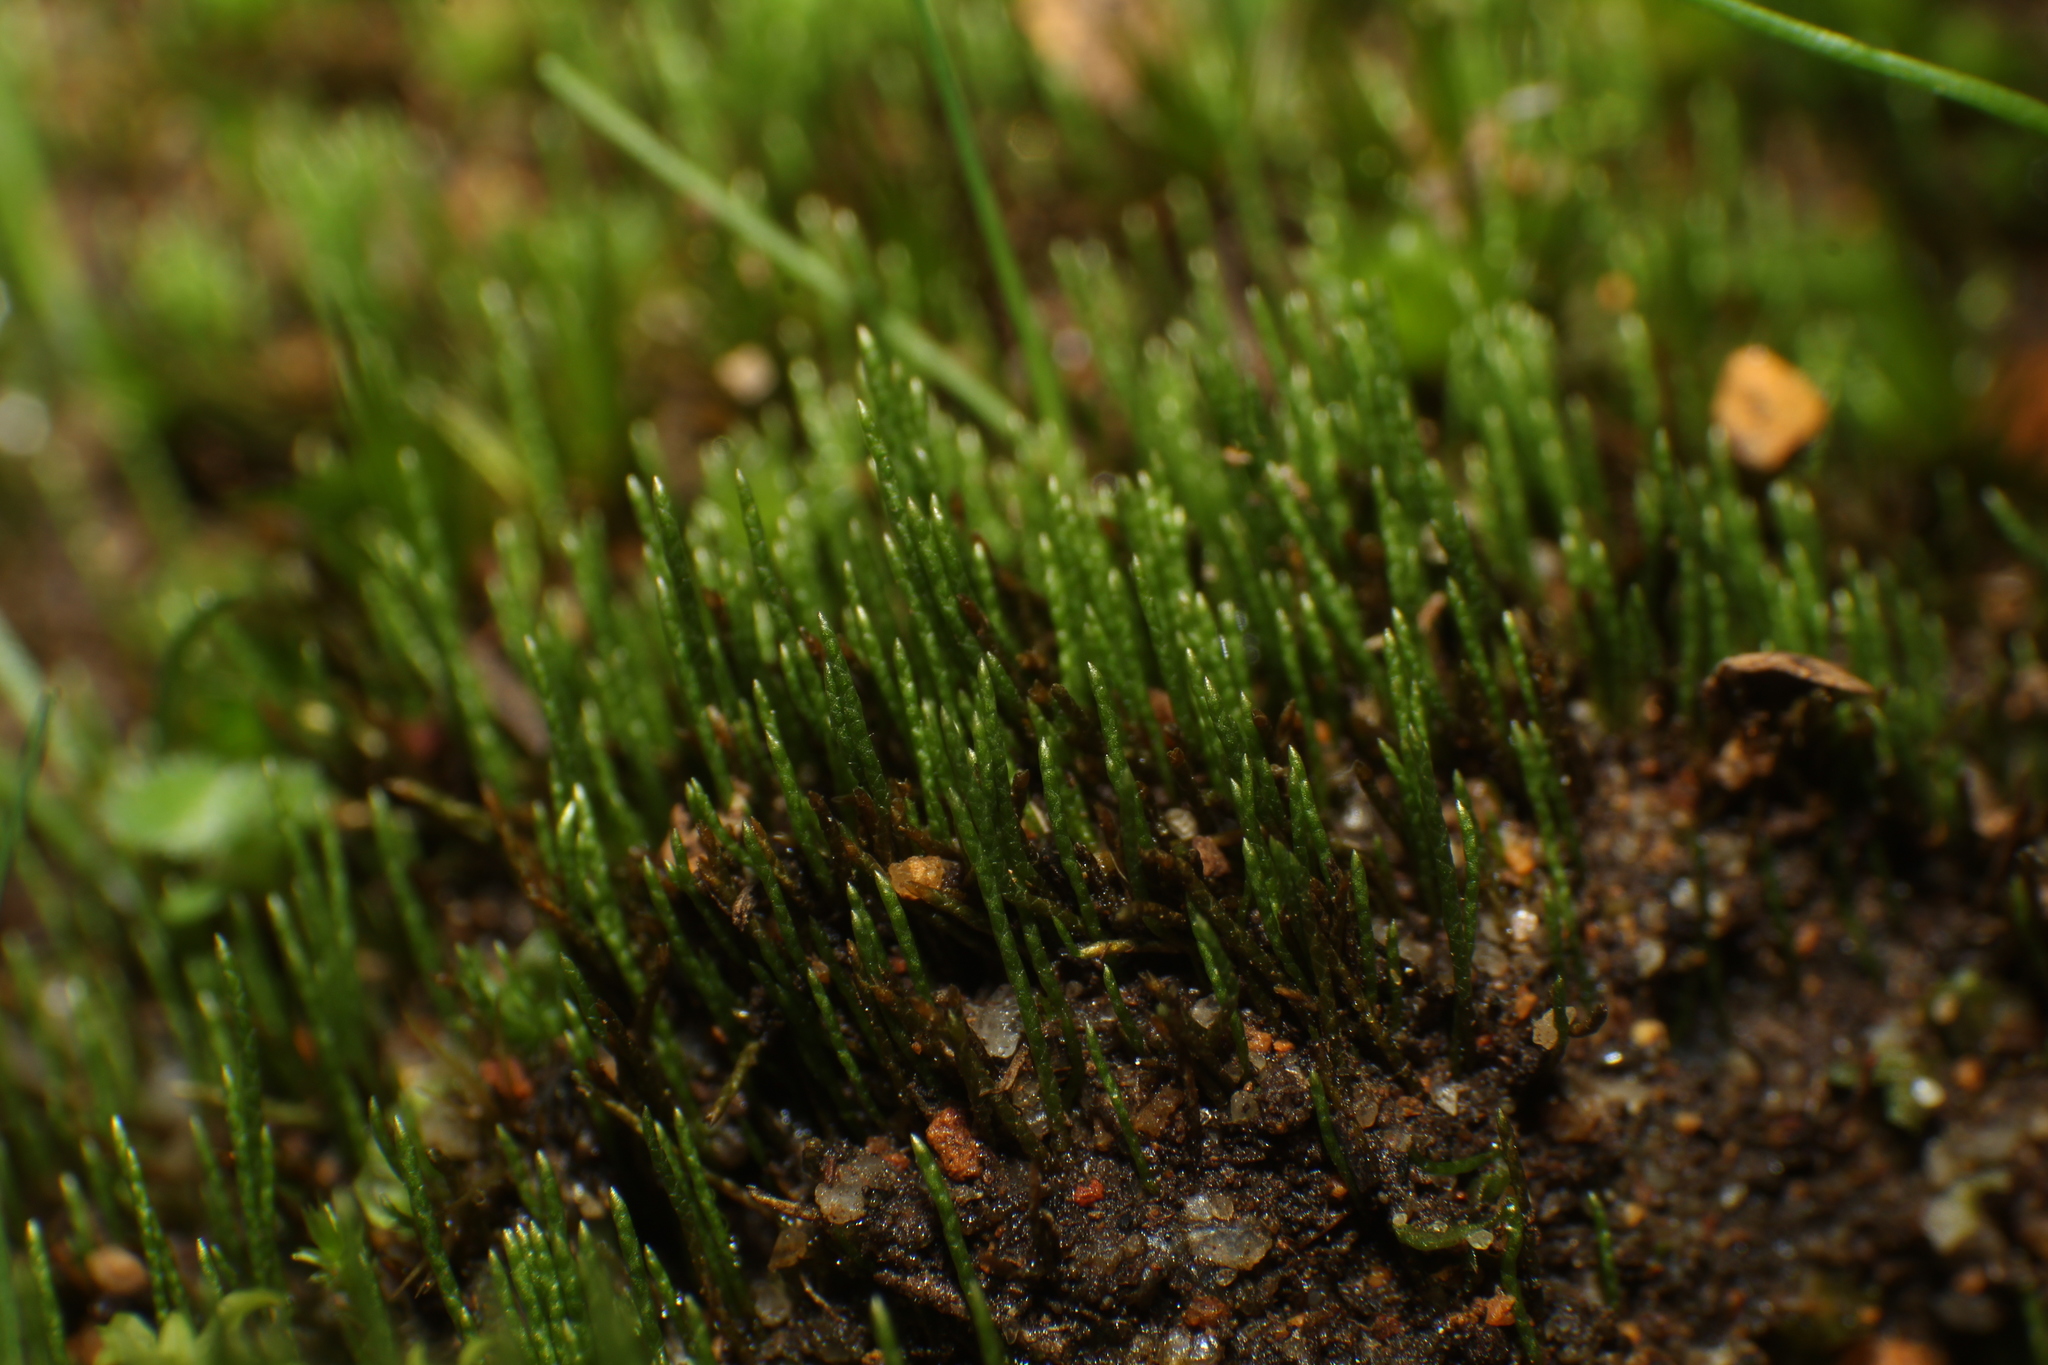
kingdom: Plantae
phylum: Bryophyta
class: Bryopsida
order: Dicranales
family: Dicranellaceae
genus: Eccremidium
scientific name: Eccremidium pulchellum
